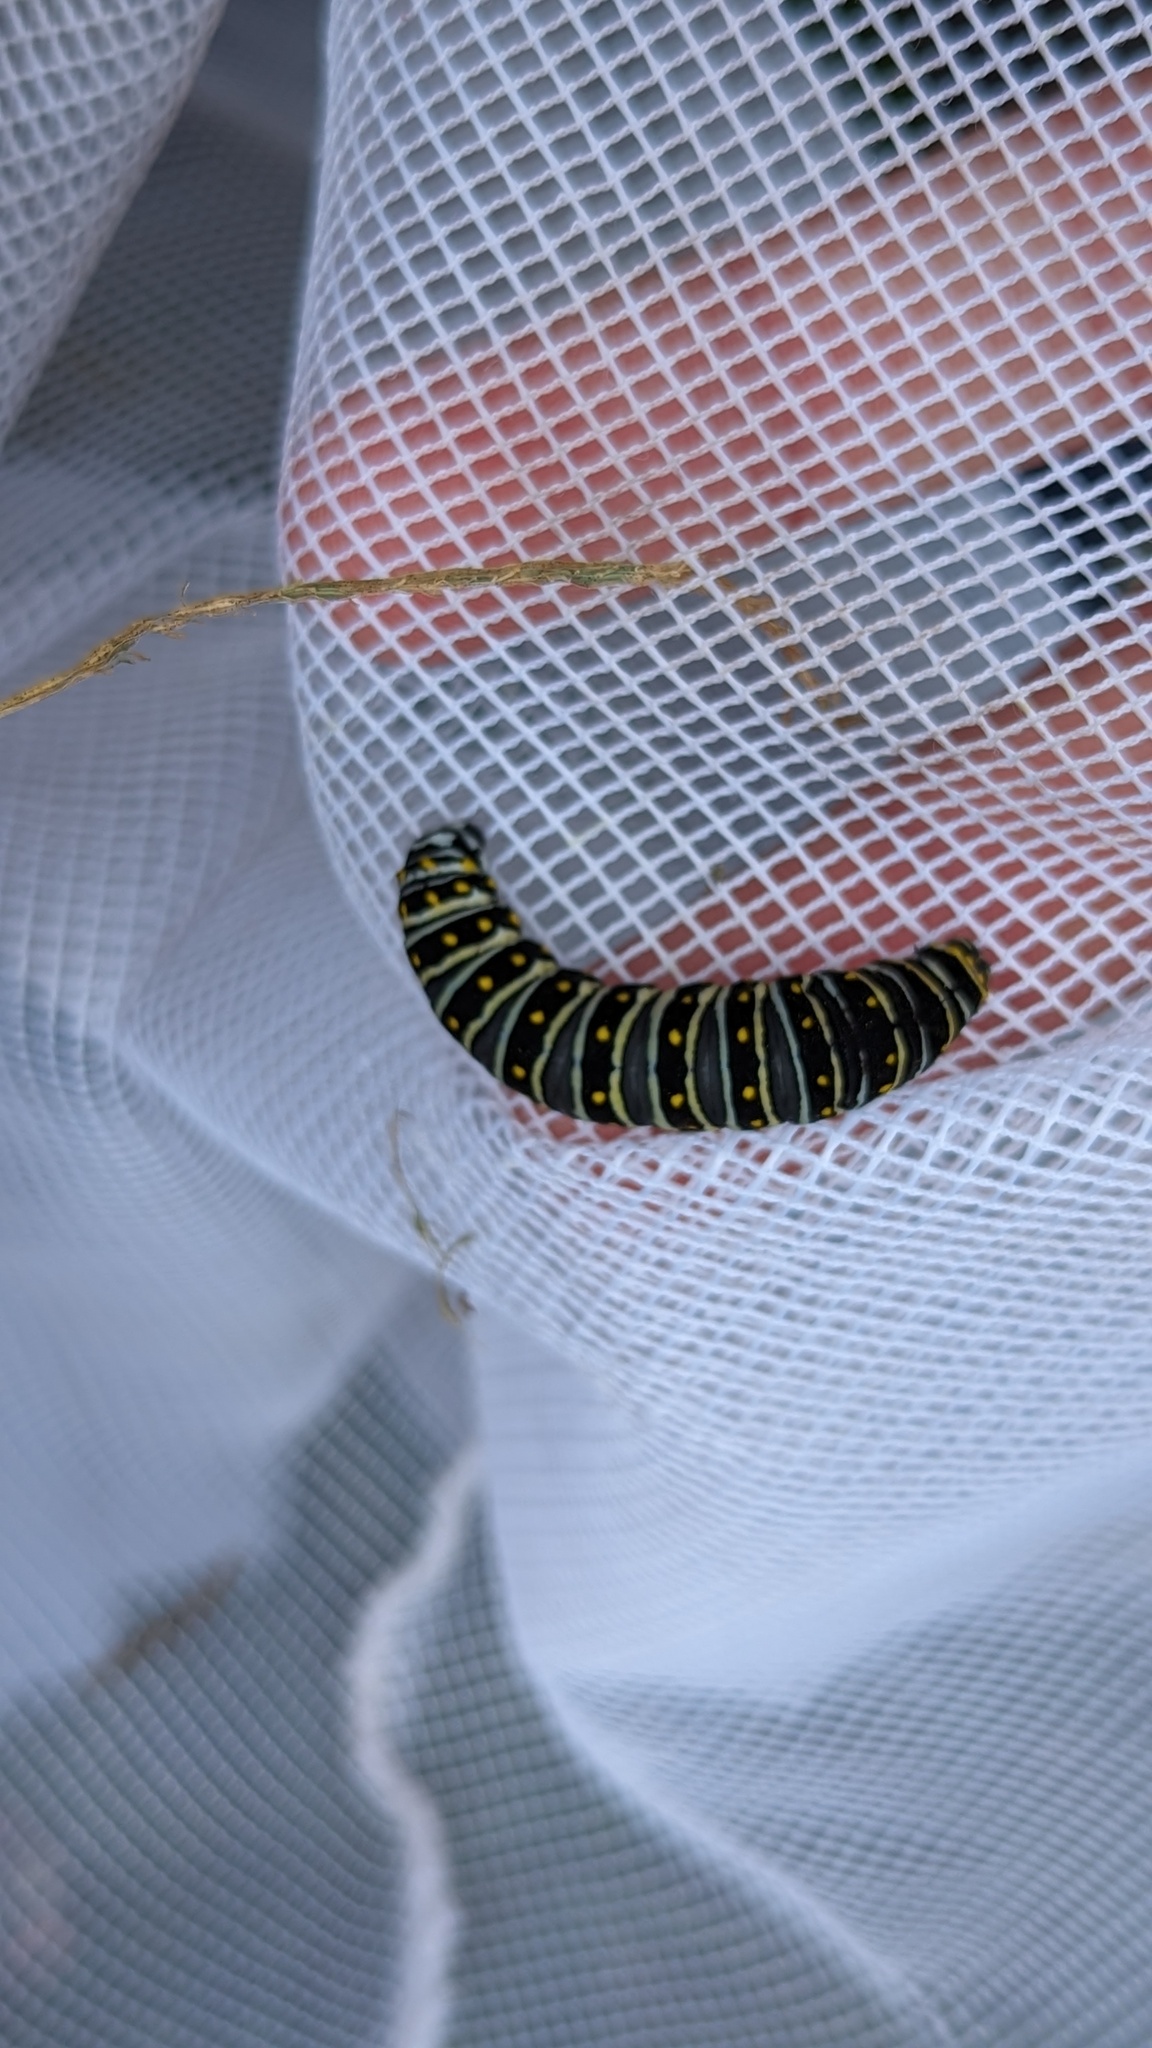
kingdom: Animalia
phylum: Arthropoda
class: Insecta
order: Lepidoptera
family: Papilionidae
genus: Papilio
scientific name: Papilio polyxenes
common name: Black swallowtail
